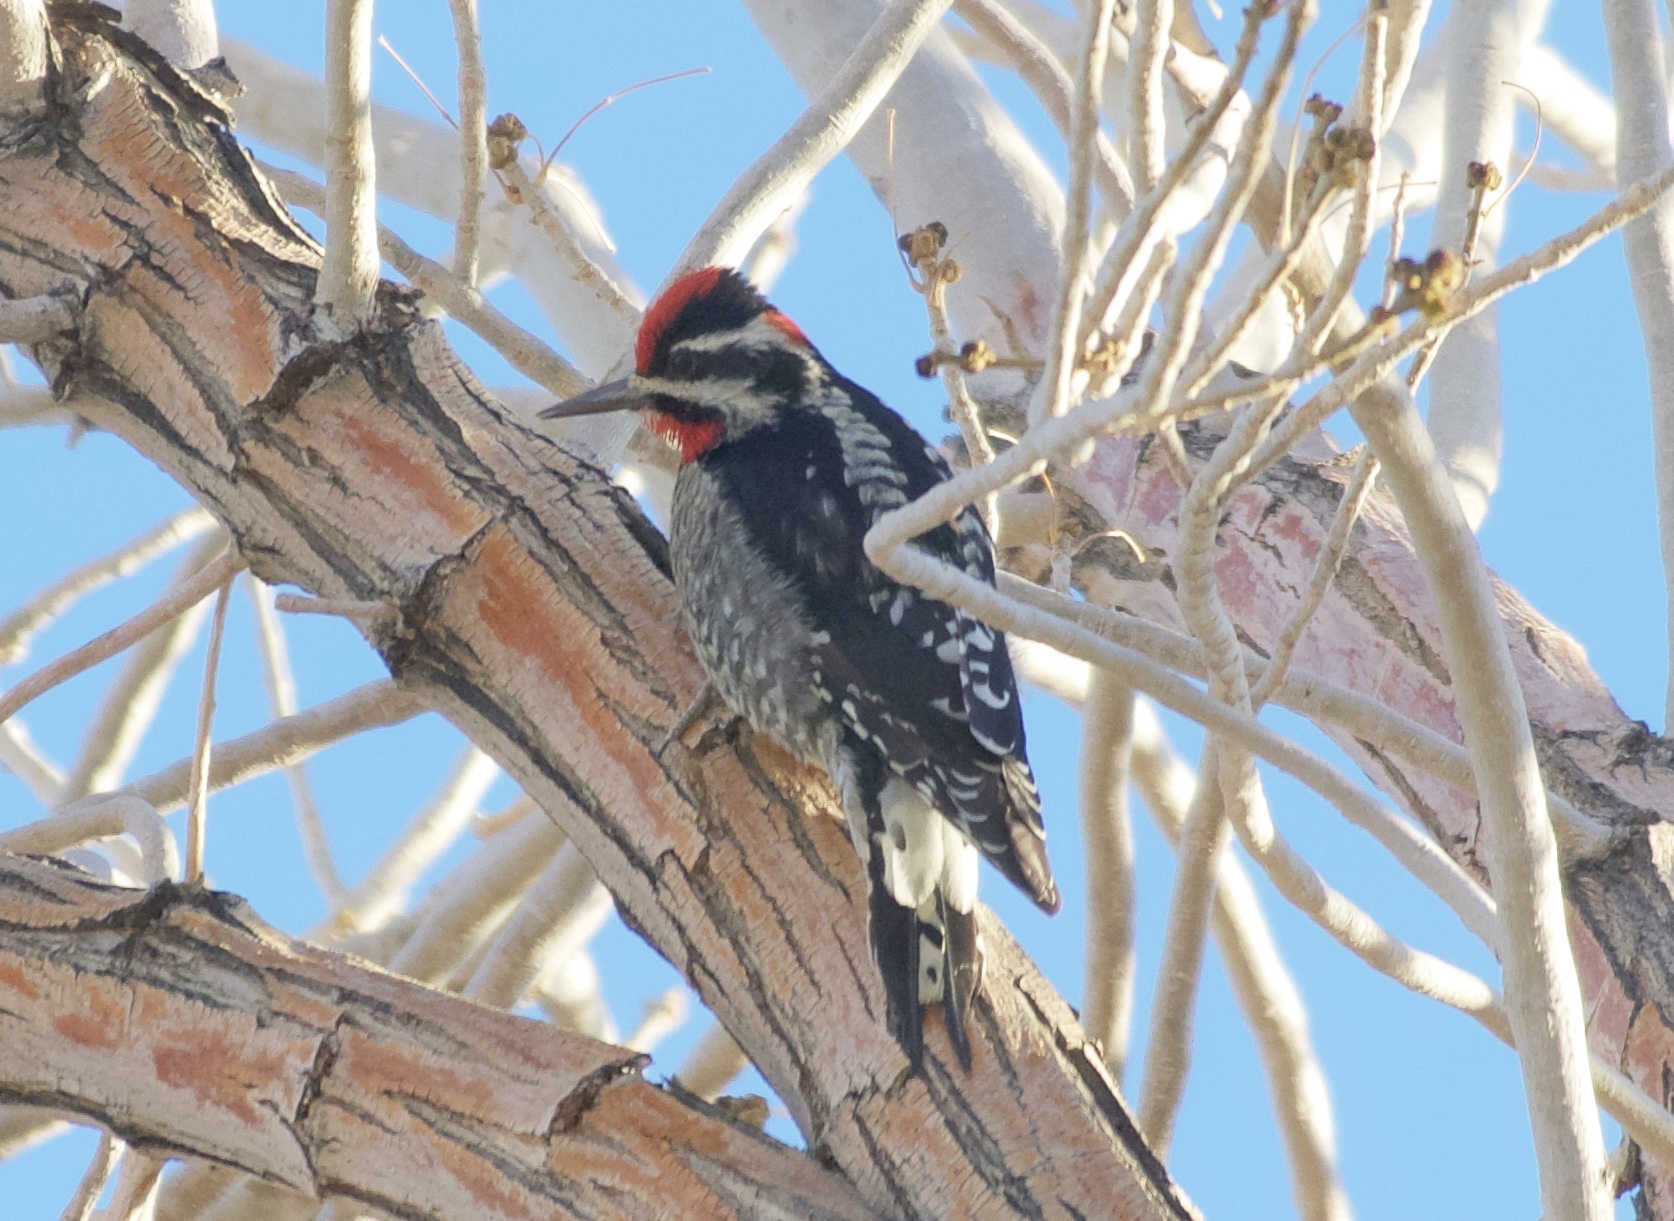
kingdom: Animalia
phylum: Chordata
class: Aves
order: Piciformes
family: Picidae
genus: Sphyrapicus
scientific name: Sphyrapicus nuchalis
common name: Red-naped sapsucker
